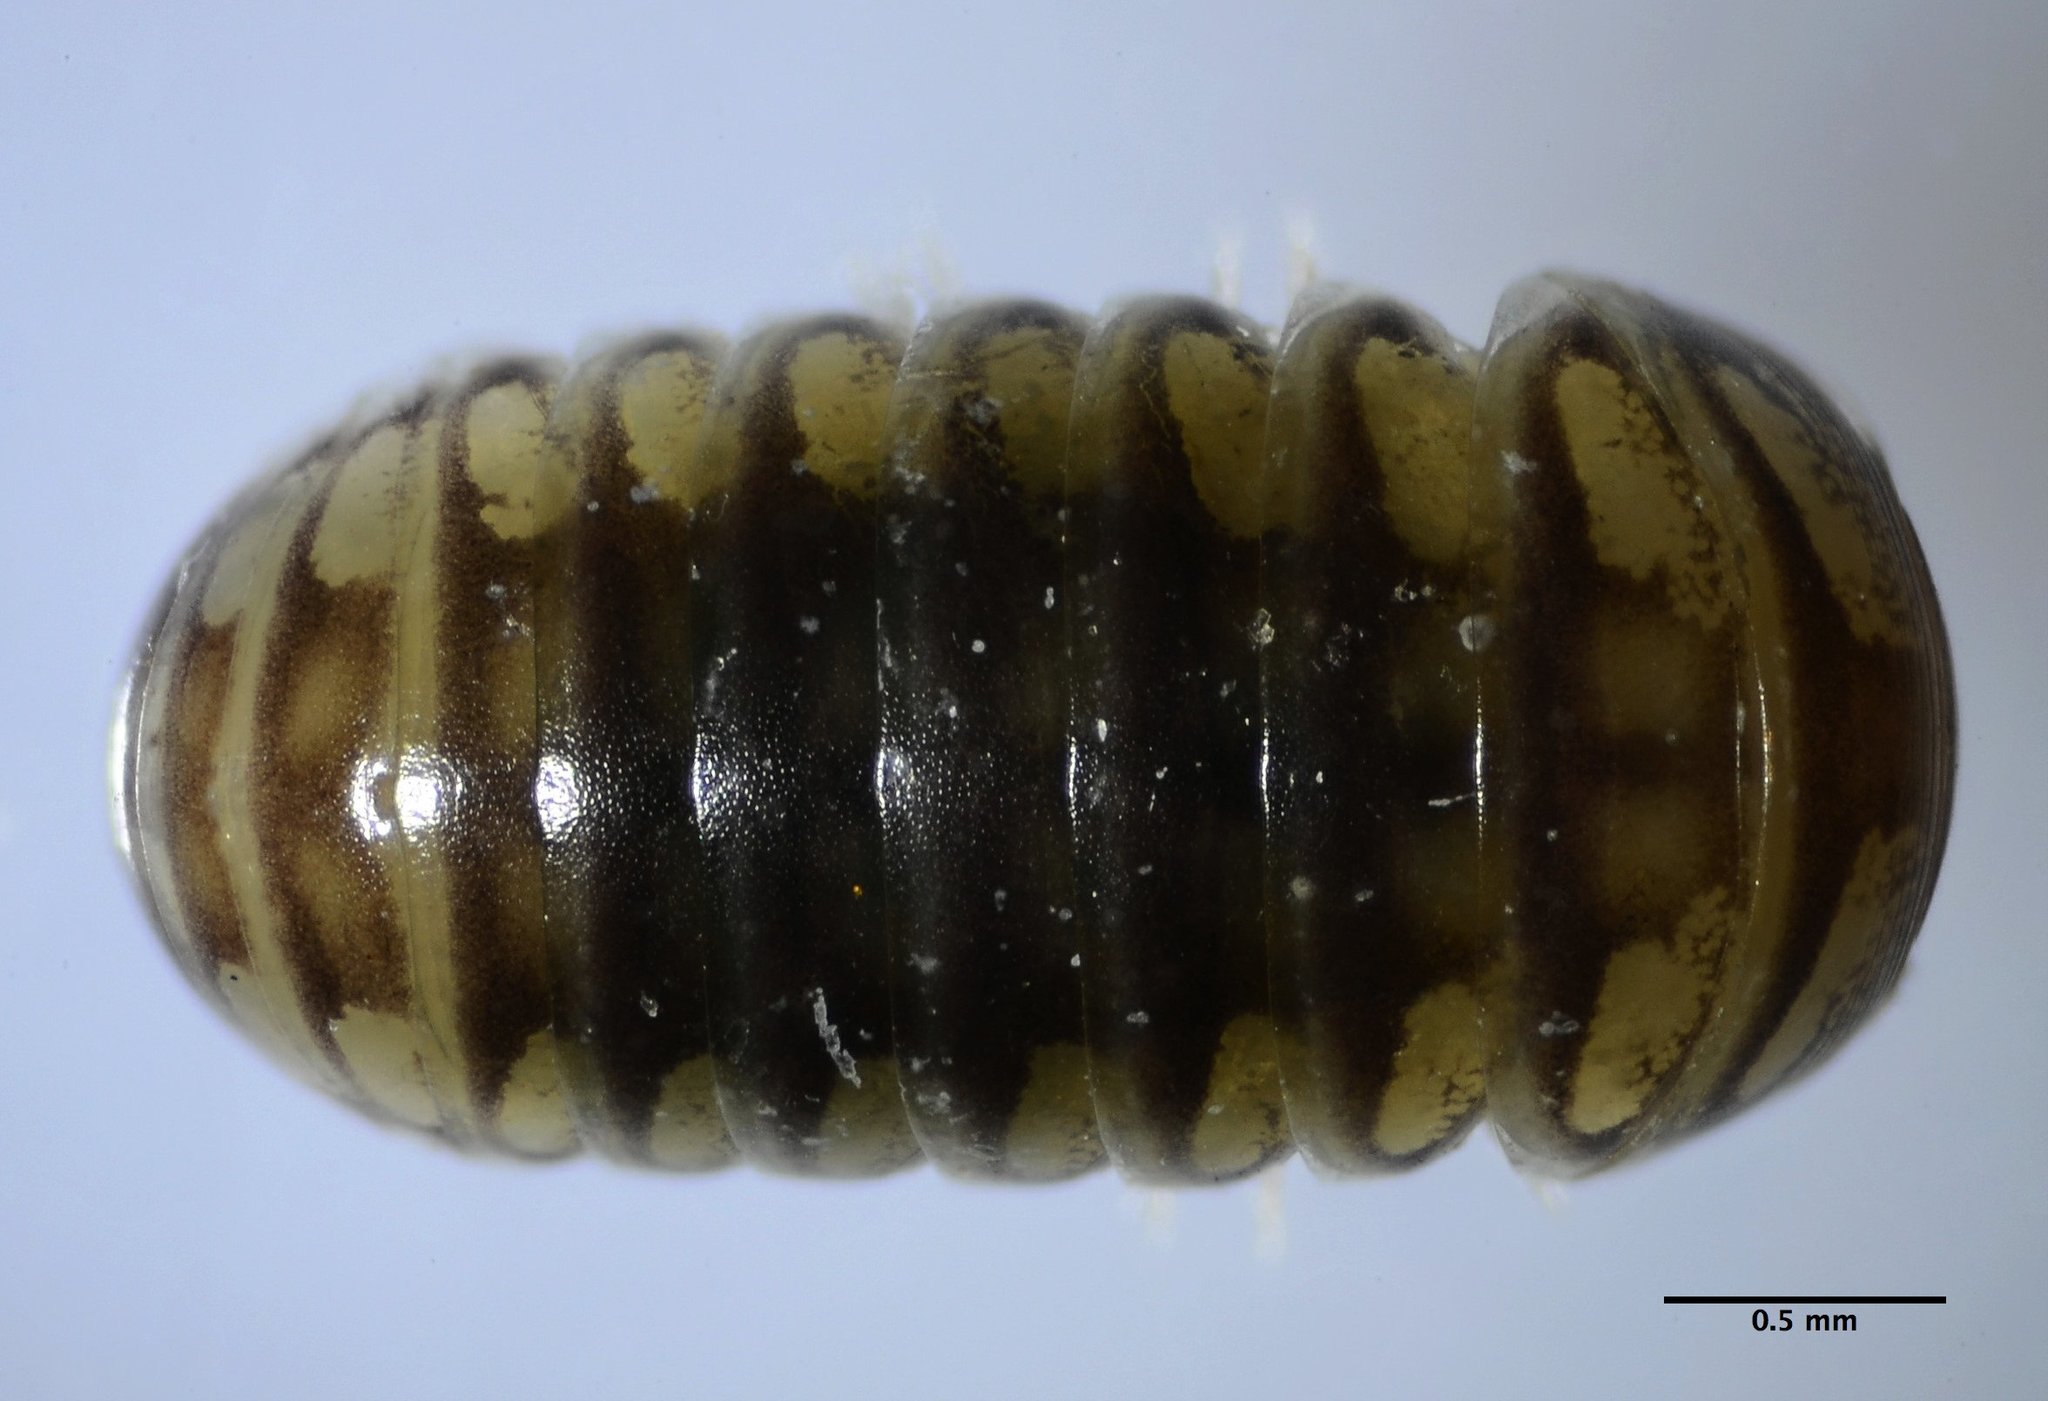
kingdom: Animalia
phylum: Arthropoda
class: Diplopoda
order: Glomerida
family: Protoglomeridae
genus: Glomeroides
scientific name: Glomeroides primus
